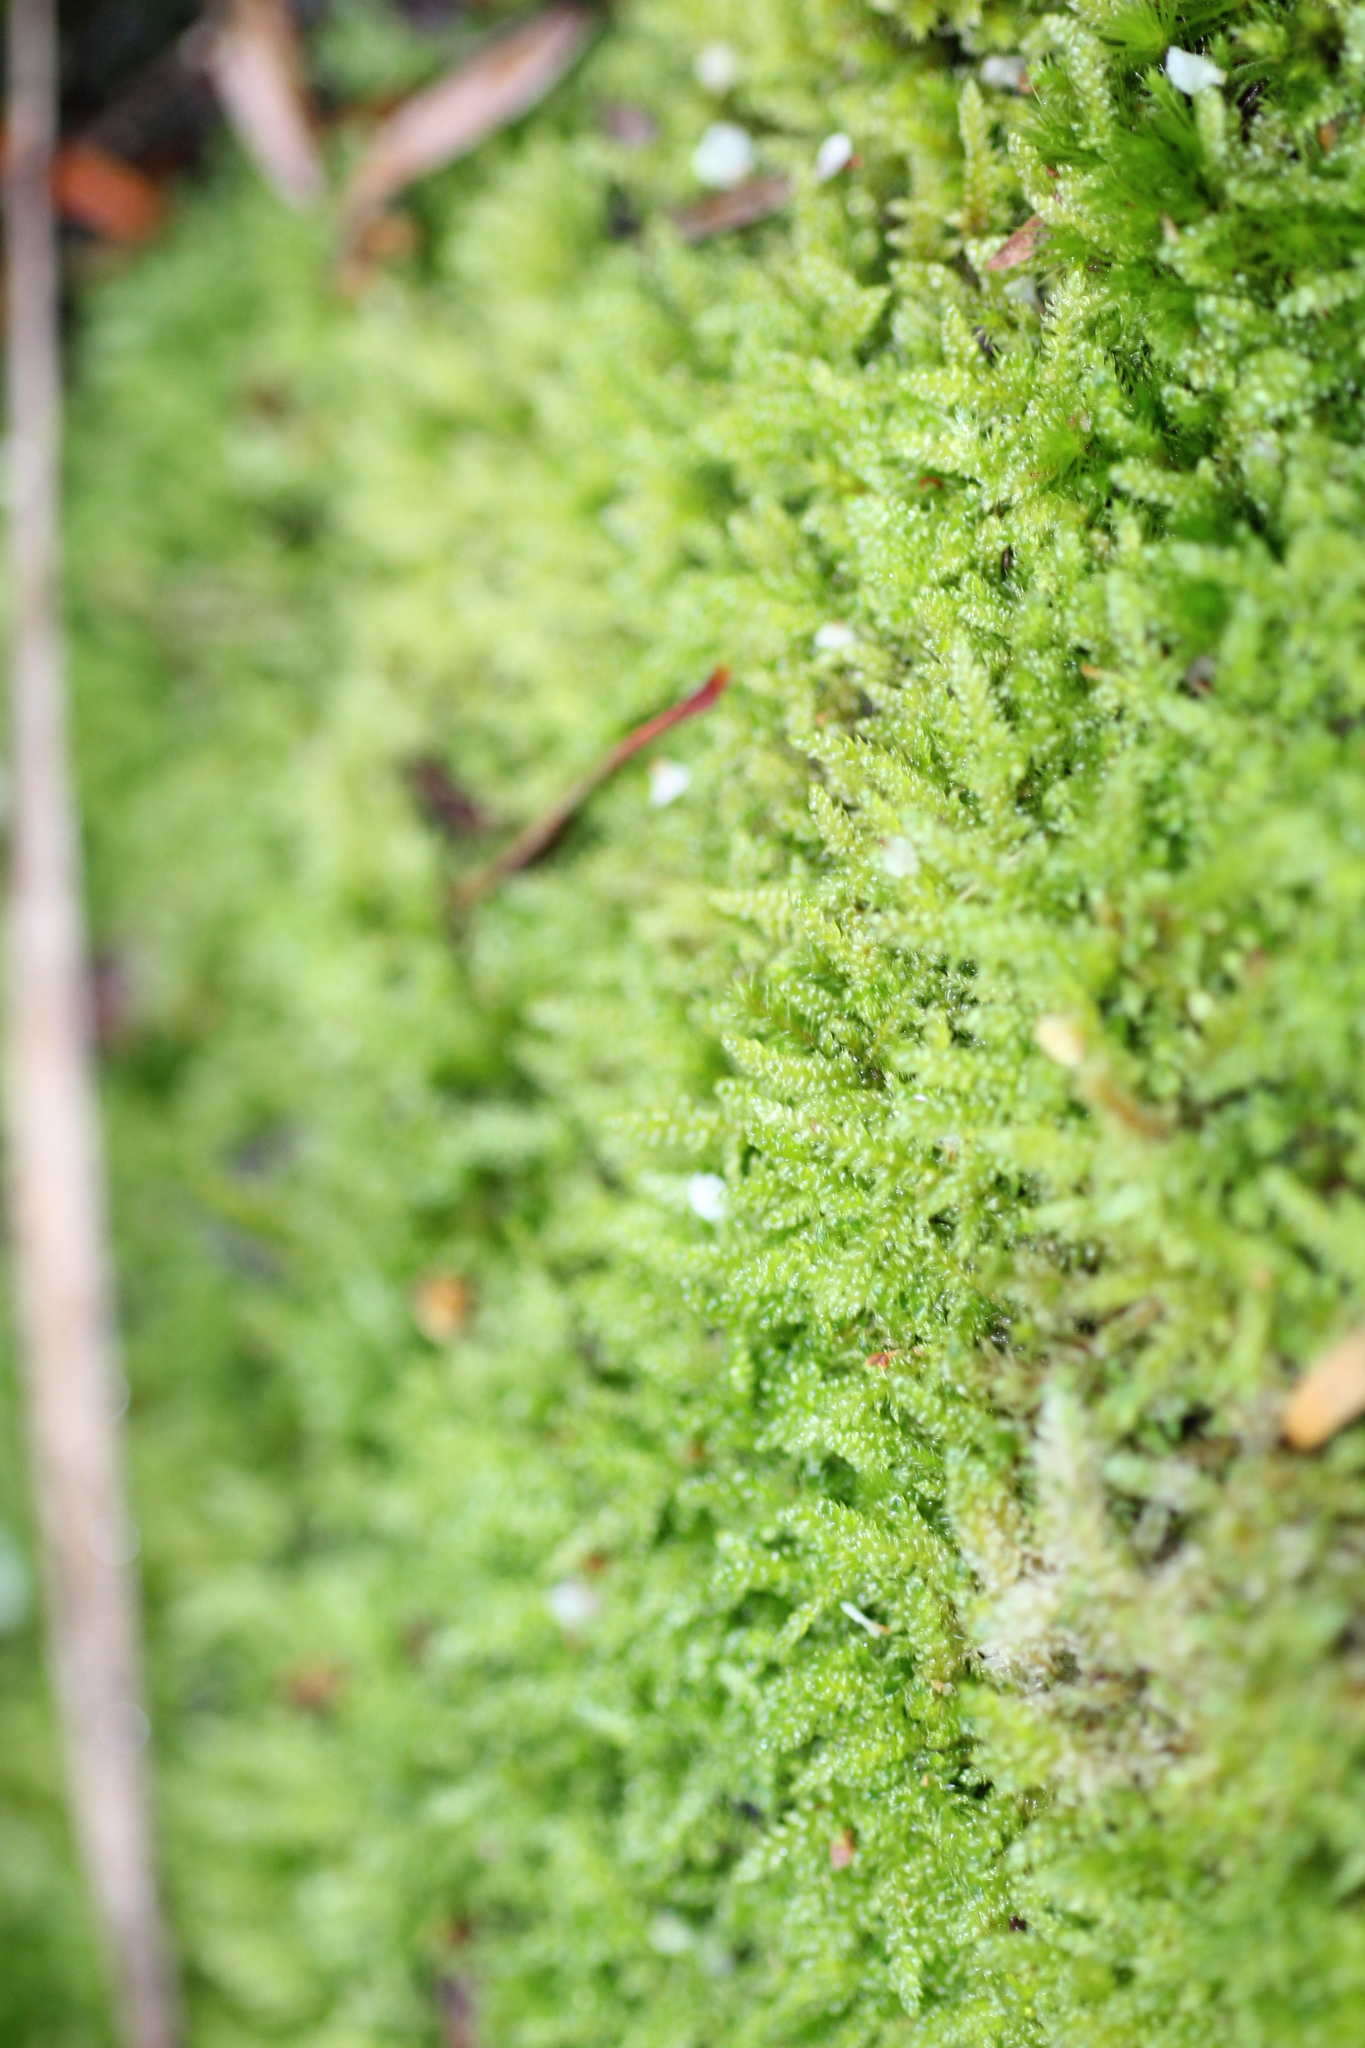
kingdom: Plantae
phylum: Bryophyta
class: Bryopsida
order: Hypnales
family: Hypnaceae
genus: Hypnum
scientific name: Hypnum cupressiforme
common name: Cypress-leaved plait-moss
